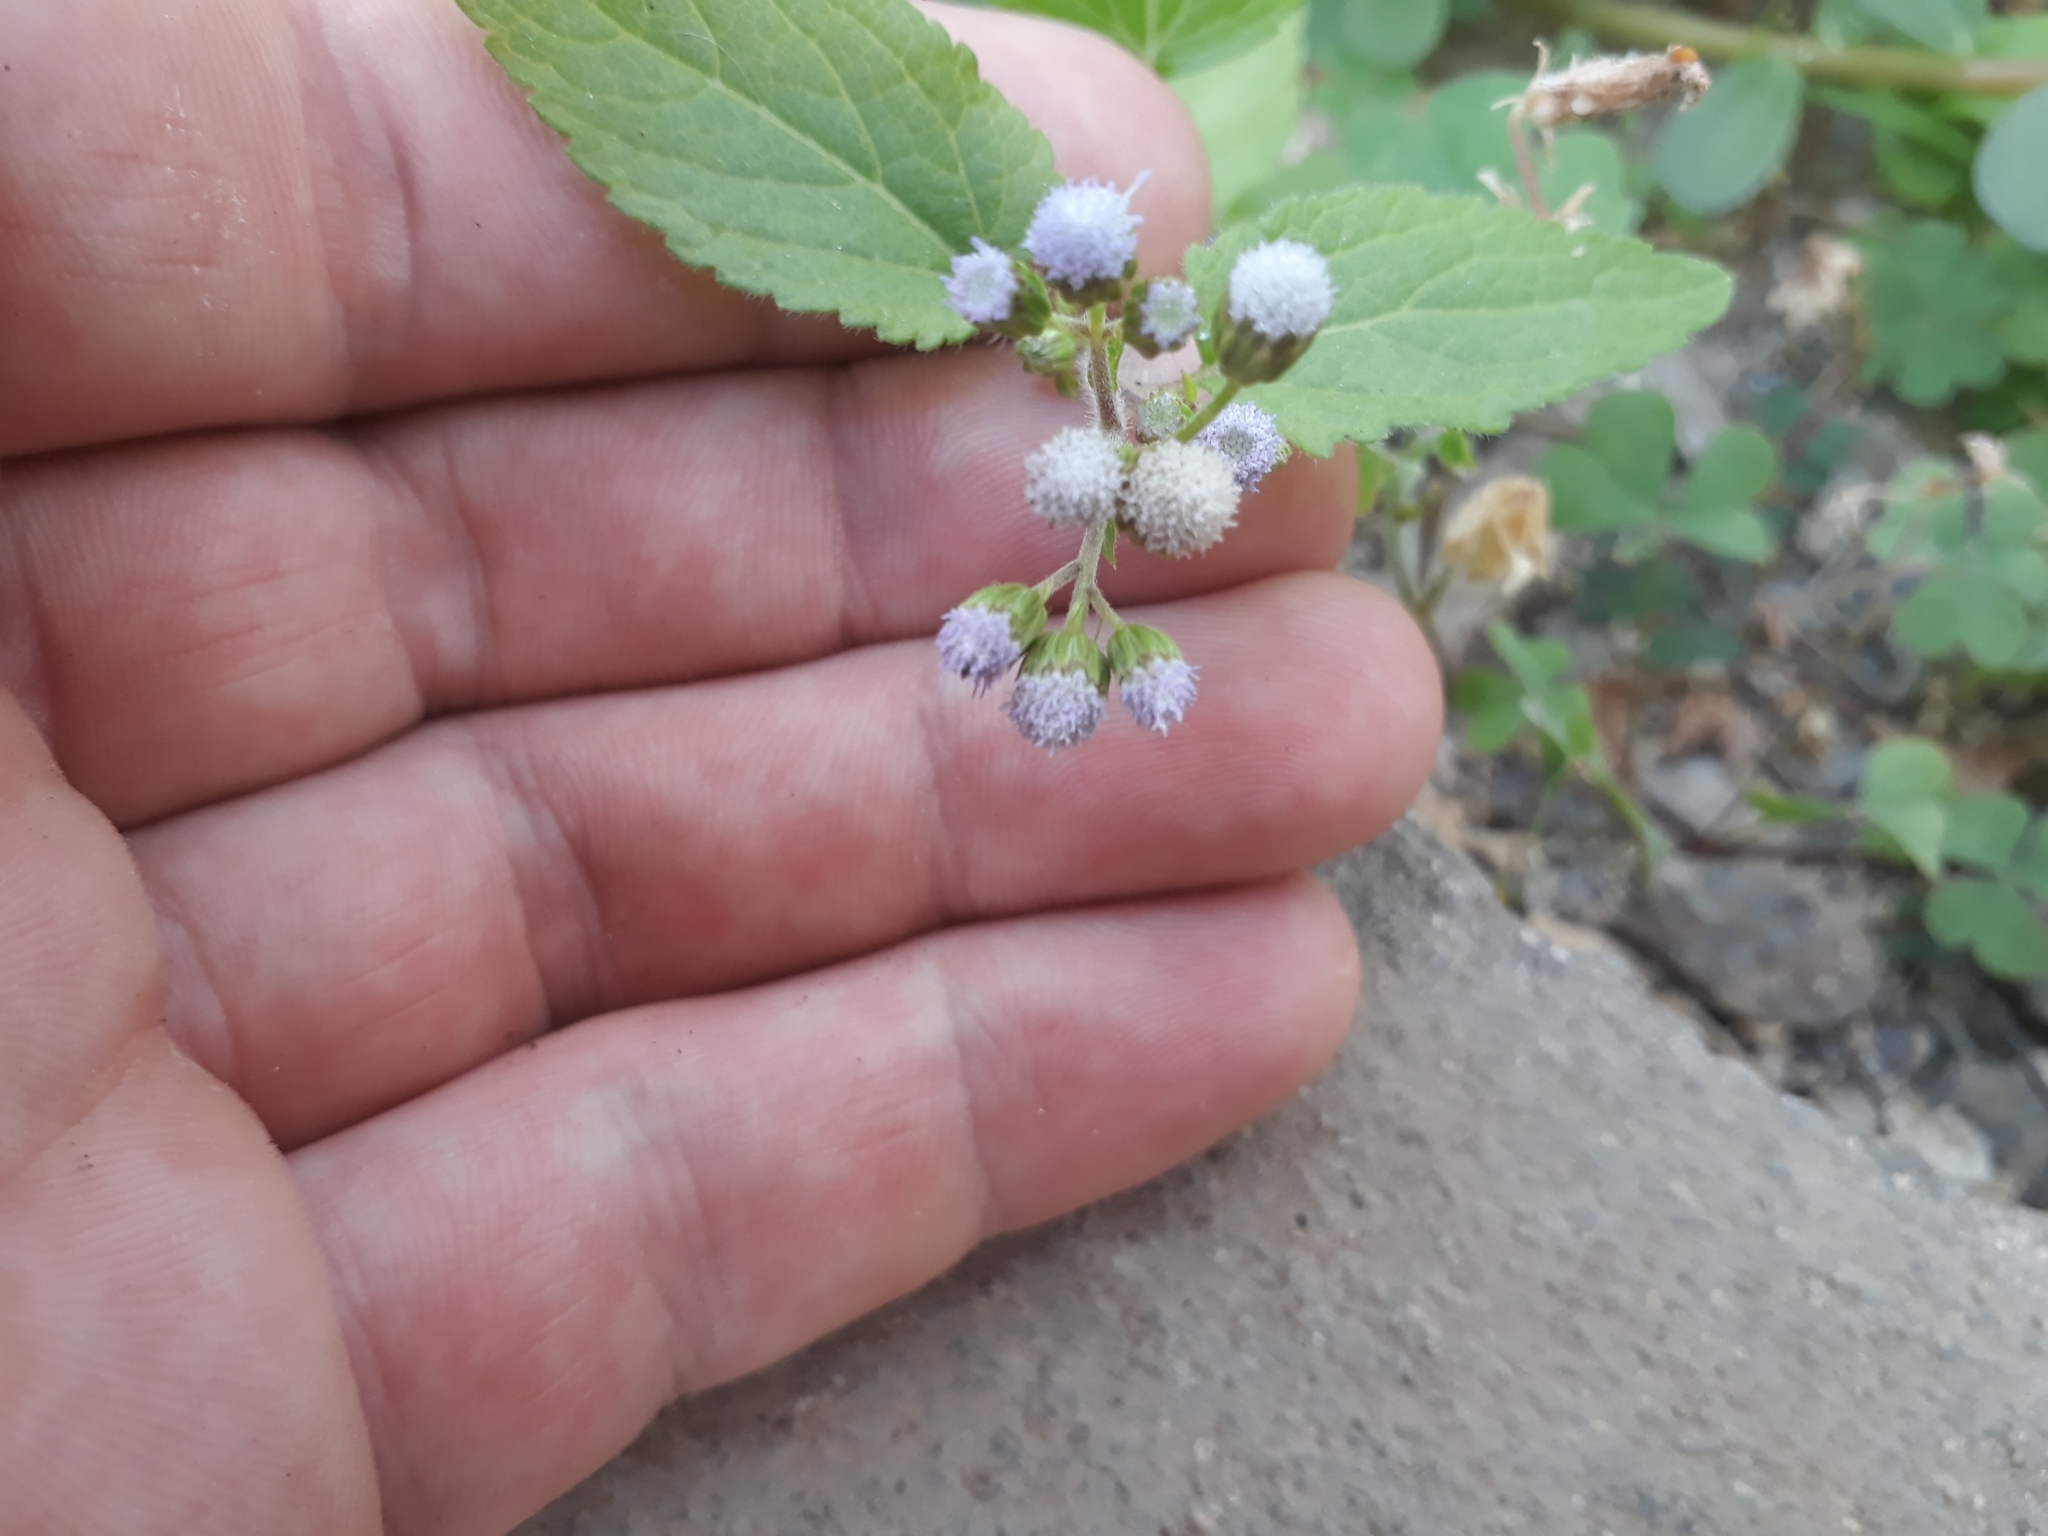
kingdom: Plantae
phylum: Tracheophyta
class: Magnoliopsida
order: Asterales
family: Asteraceae
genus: Ageratum
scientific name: Ageratum conyzoides
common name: Tropical whiteweed
